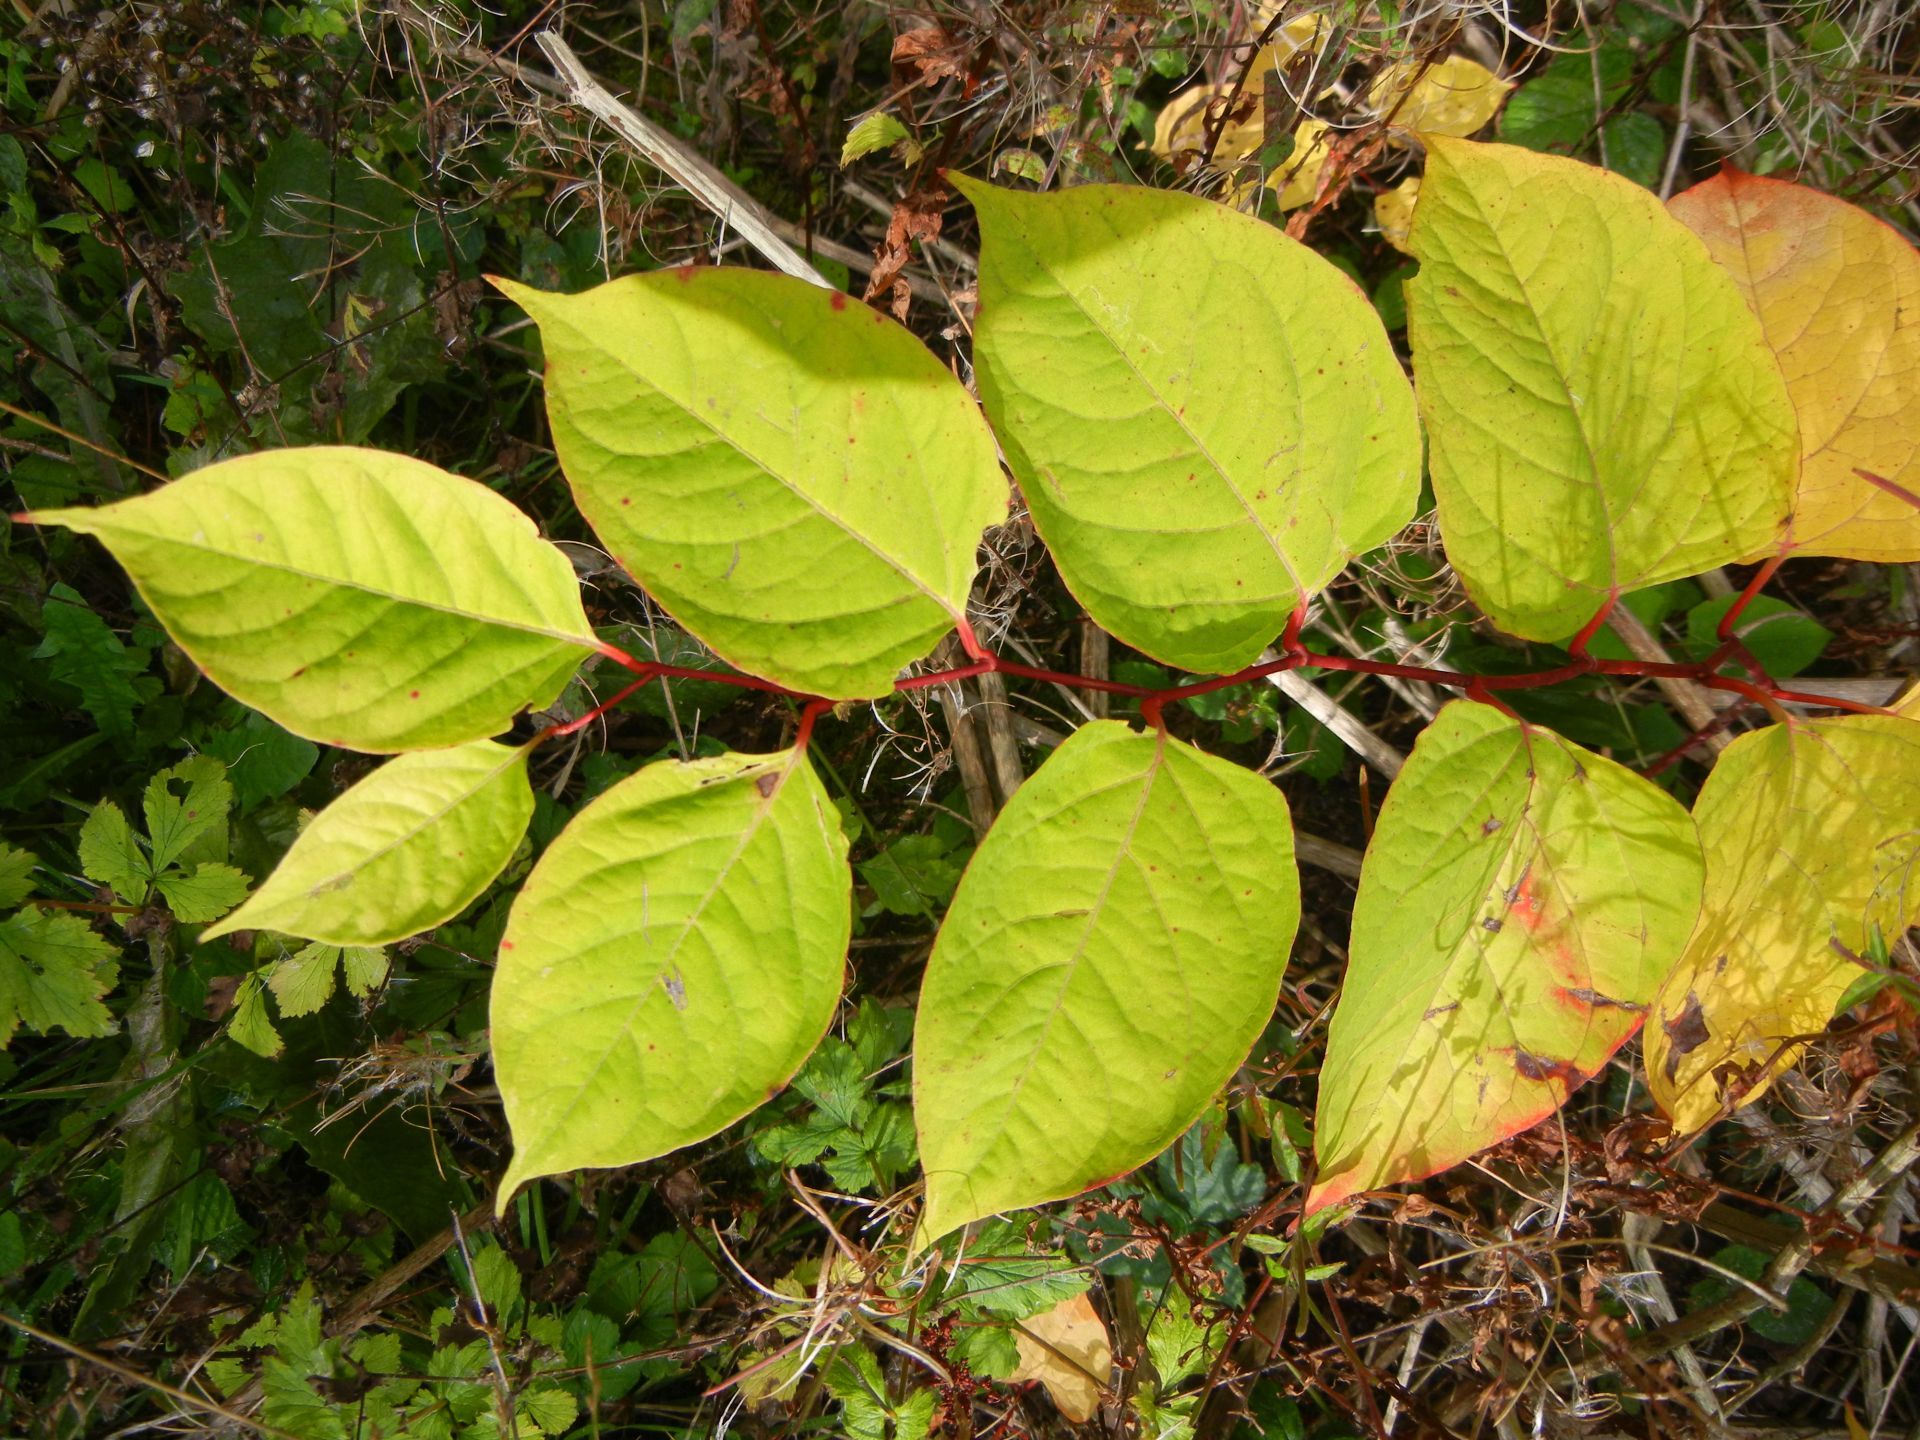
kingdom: Plantae
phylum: Tracheophyta
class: Magnoliopsida
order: Caryophyllales
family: Polygonaceae
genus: Reynoutria
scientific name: Reynoutria japonica
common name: Japanese knotweed
